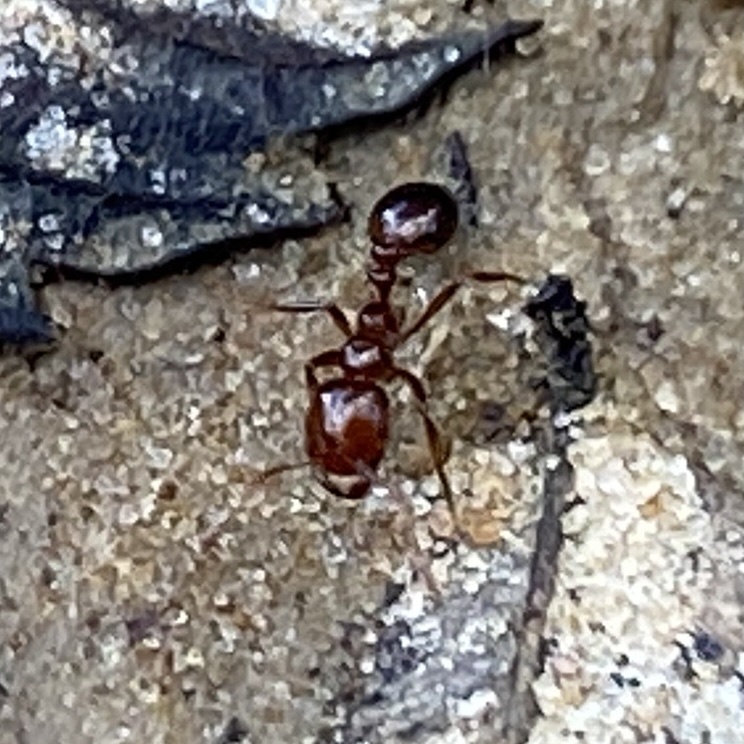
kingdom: Animalia
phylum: Arthropoda
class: Insecta
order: Hymenoptera
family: Formicidae
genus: Solenopsis
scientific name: Solenopsis invicta
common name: Red imported fire ant
